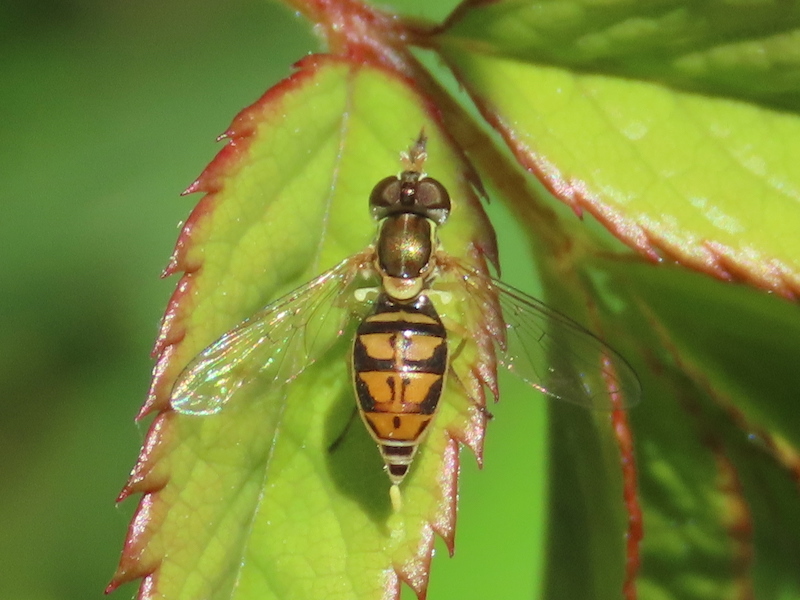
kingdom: Animalia
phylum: Arthropoda
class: Insecta
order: Diptera
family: Syrphidae
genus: Toxomerus
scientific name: Toxomerus marginatus
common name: Syrphid fly
